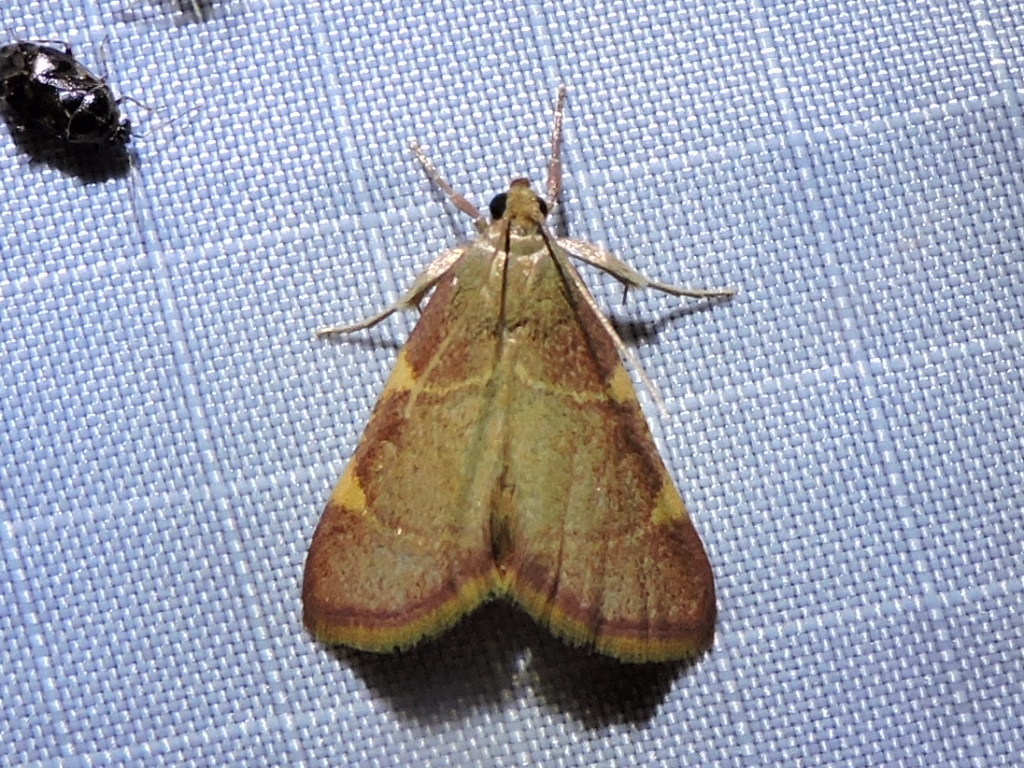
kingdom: Animalia
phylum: Arthropoda
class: Insecta
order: Lepidoptera
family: Pyralidae
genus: Hypsopygia
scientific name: Hypsopygia olinalis
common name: Yellow-fringed dolichomia moth
